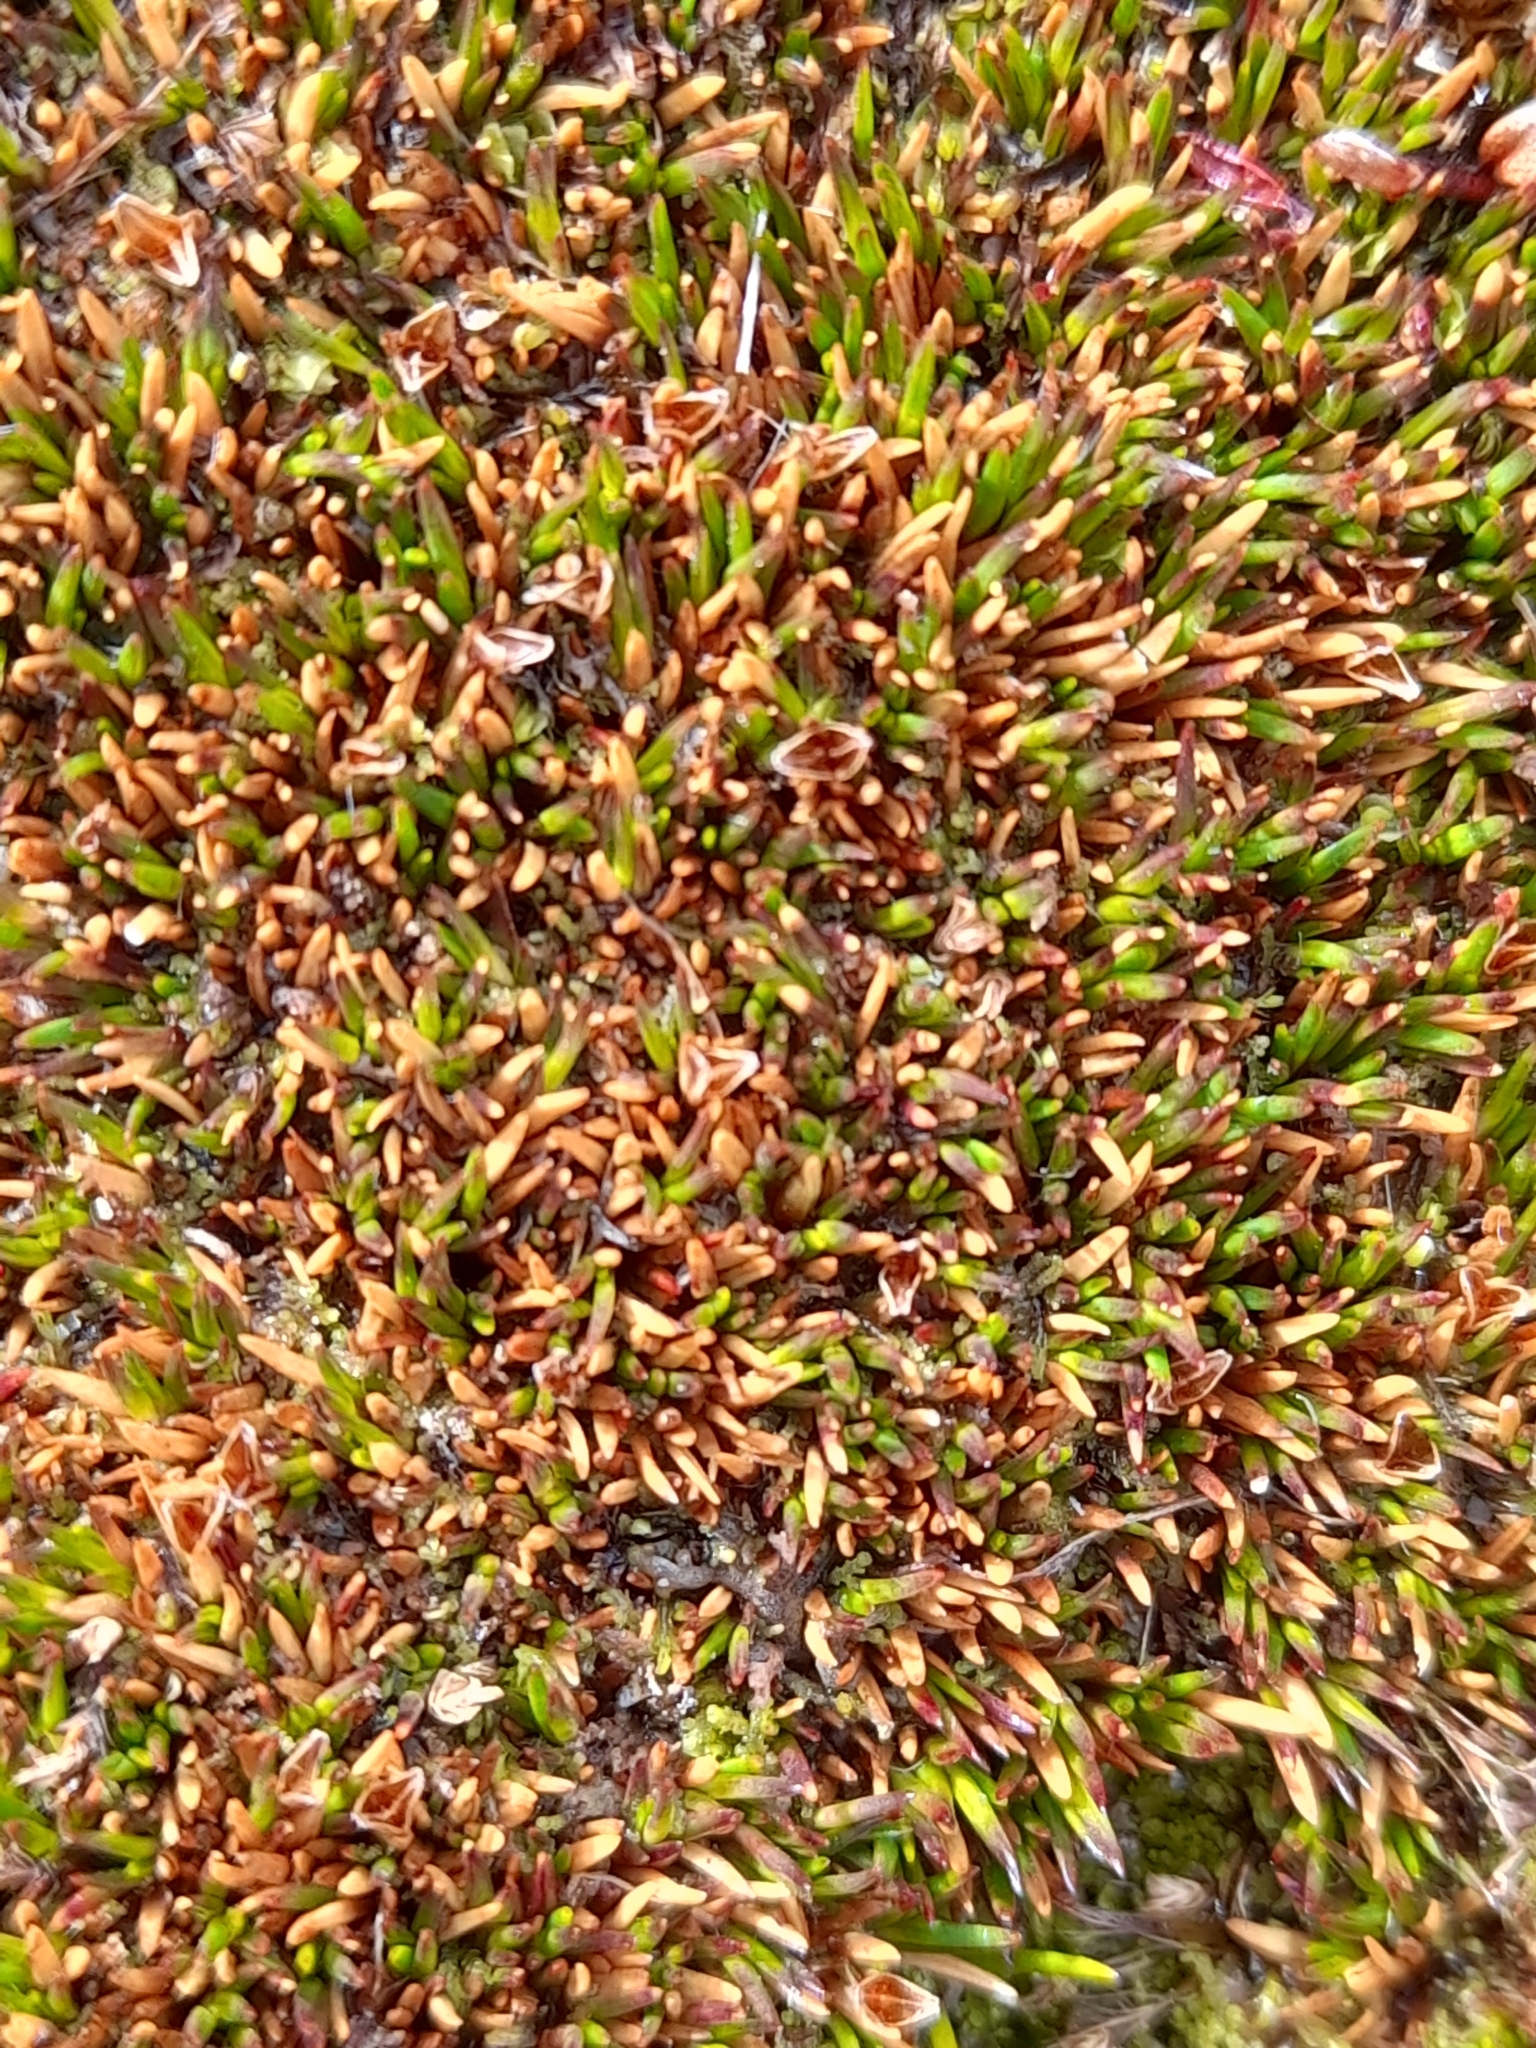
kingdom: Plantae
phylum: Tracheophyta
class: Liliopsida
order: Poales
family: Restionaceae
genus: Gaimardia
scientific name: Gaimardia australis
